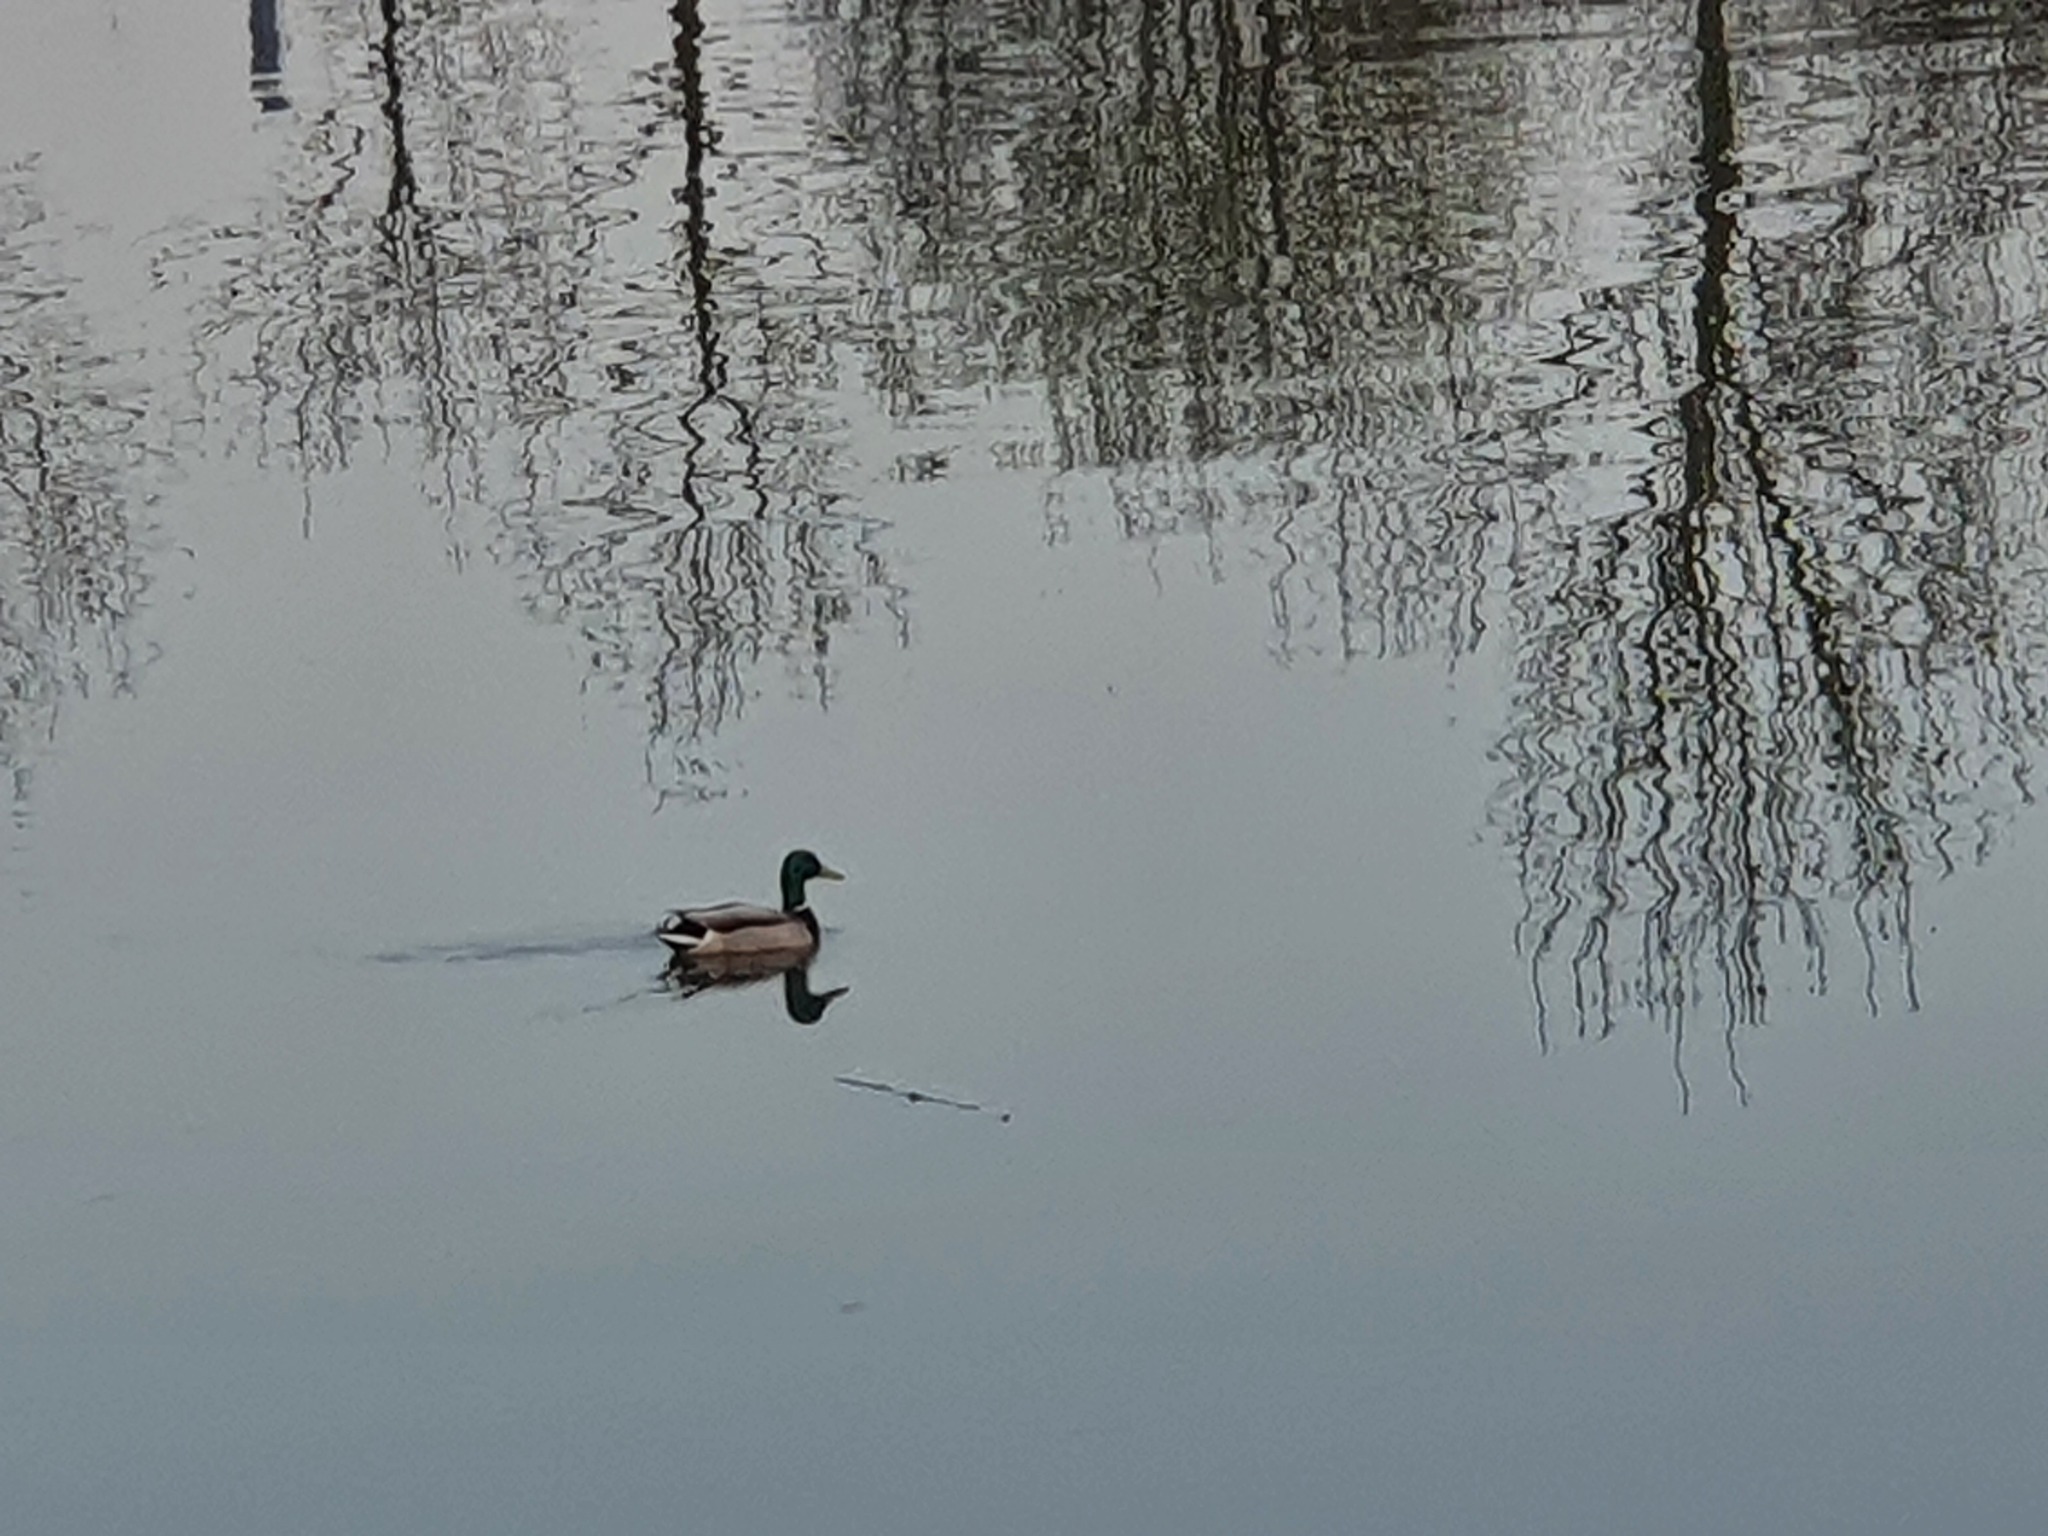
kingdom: Animalia
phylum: Chordata
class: Aves
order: Anseriformes
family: Anatidae
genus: Anas
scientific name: Anas platyrhynchos
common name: Mallard
